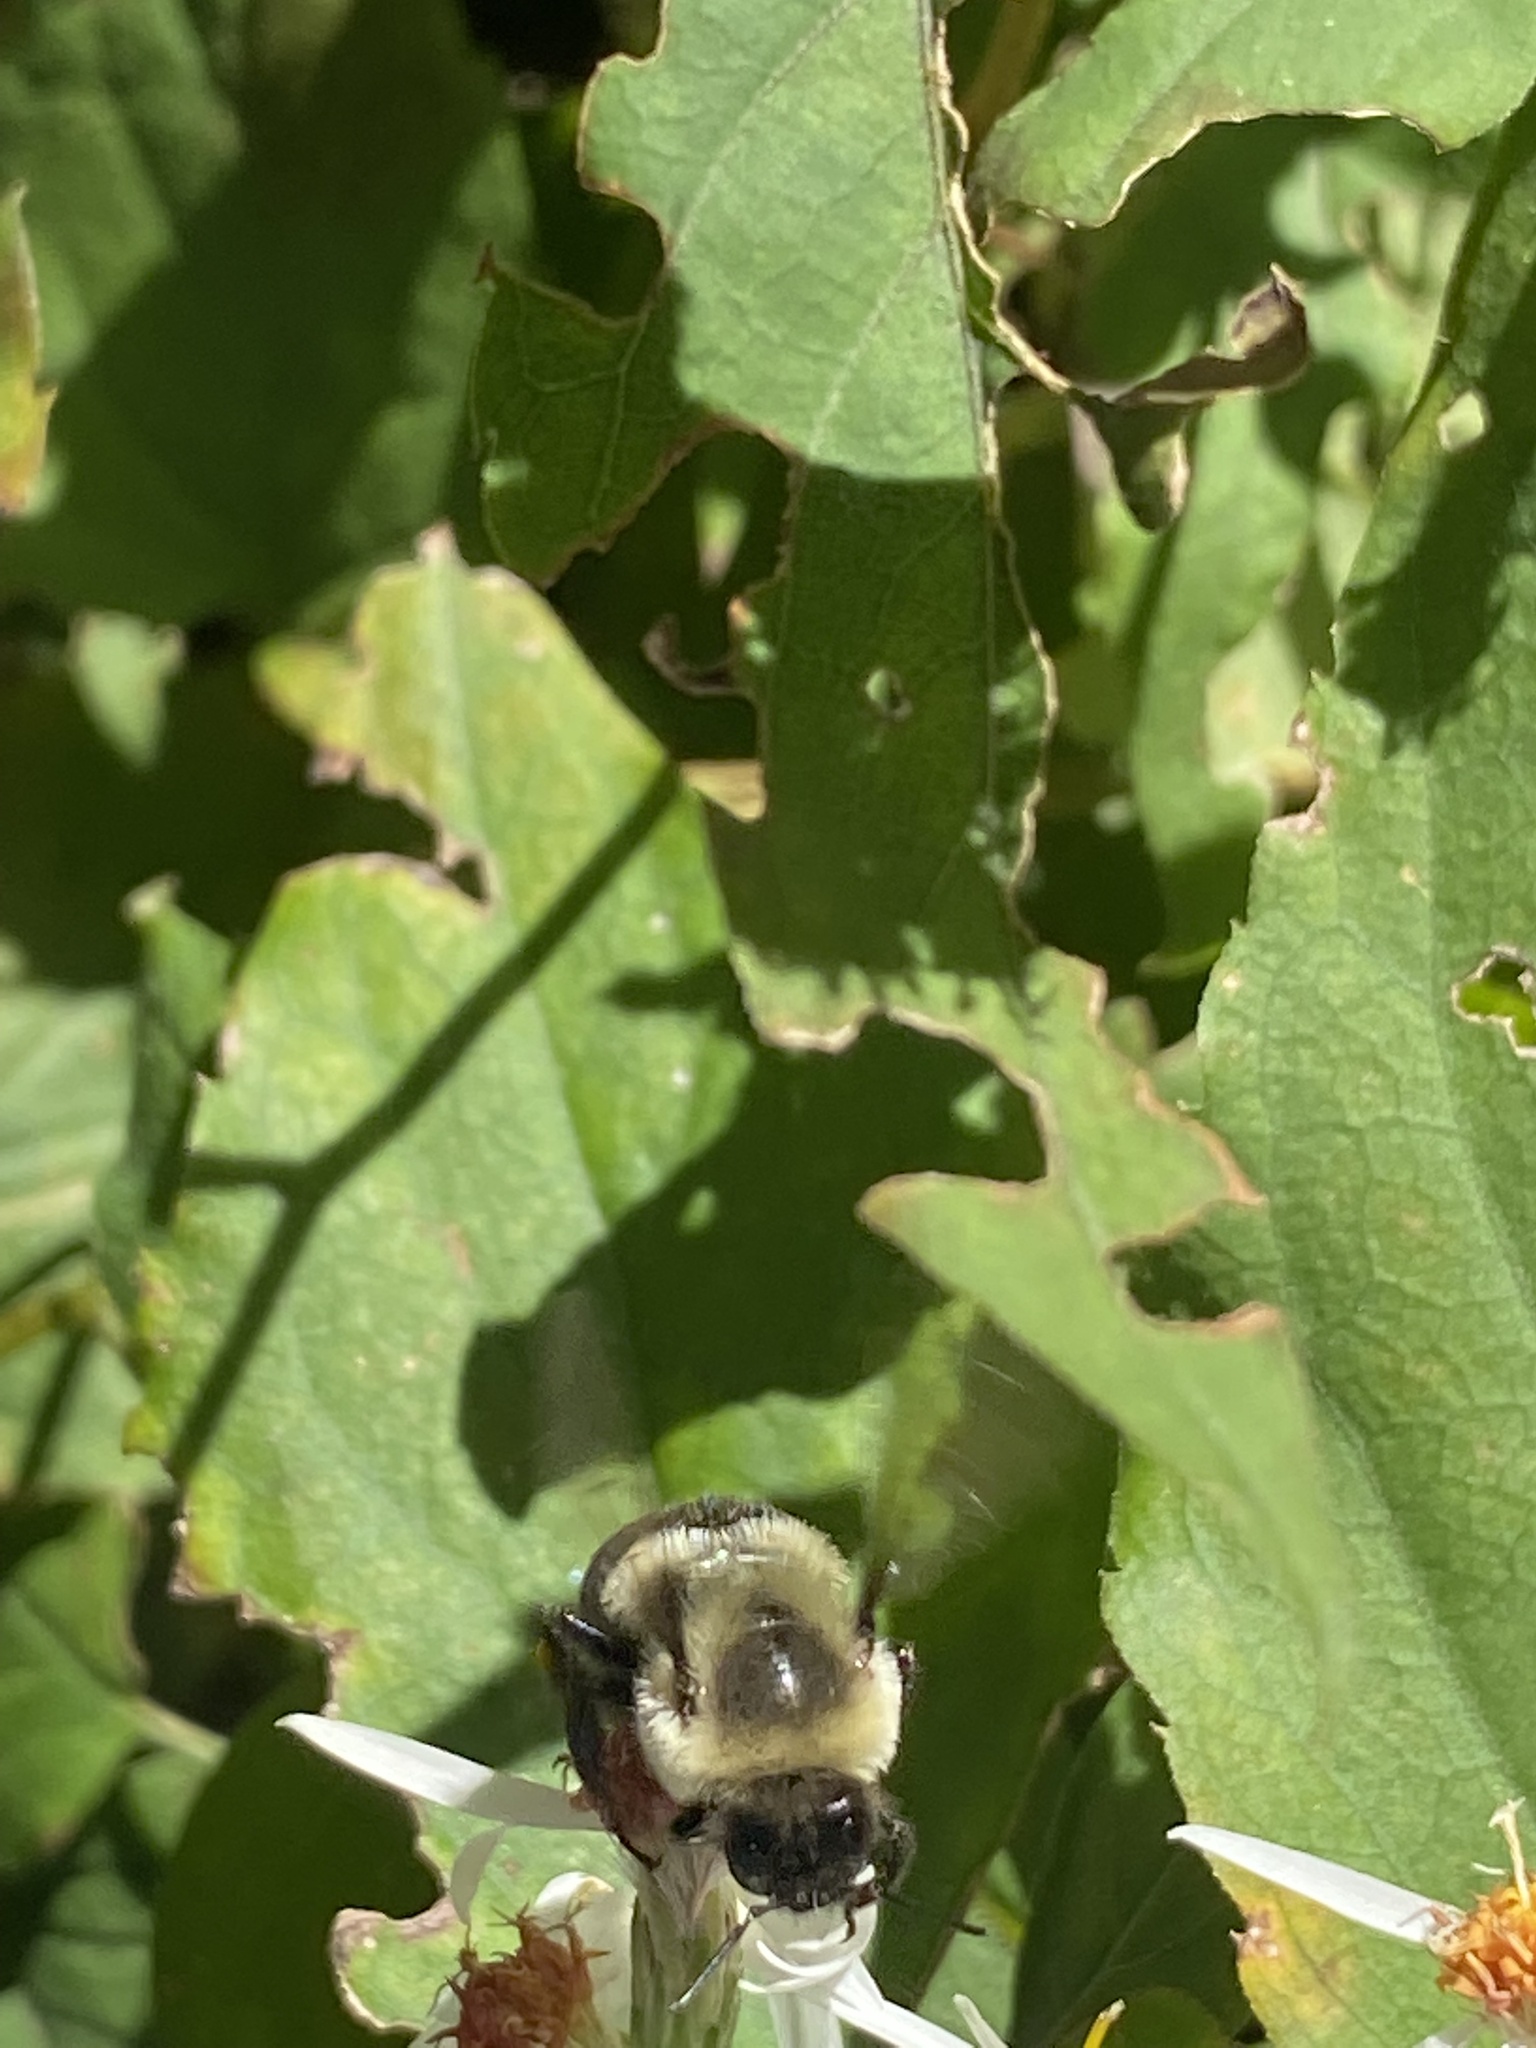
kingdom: Animalia
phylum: Arthropoda
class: Insecta
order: Hymenoptera
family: Apidae
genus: Bombus
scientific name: Bombus impatiens
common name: Common eastern bumble bee
